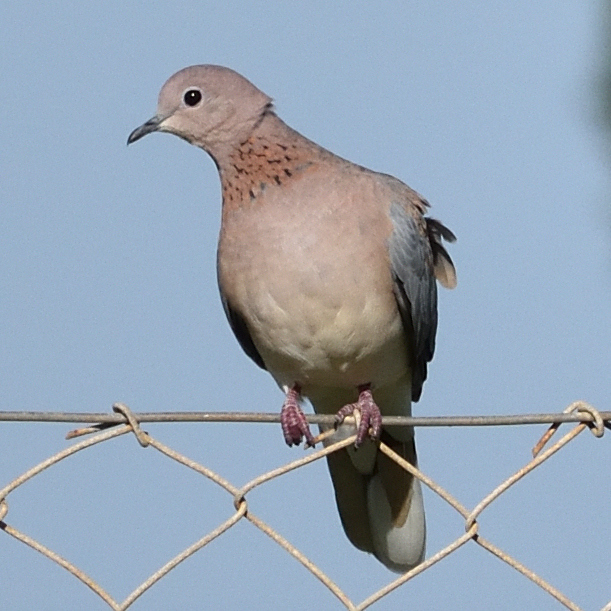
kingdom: Animalia
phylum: Chordata
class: Aves
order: Columbiformes
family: Columbidae
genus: Spilopelia
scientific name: Spilopelia senegalensis
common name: Laughing dove
